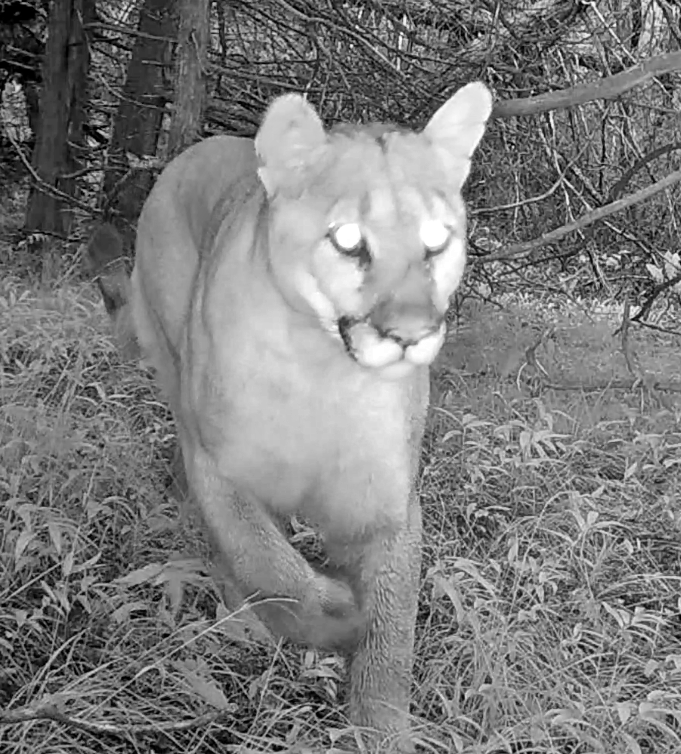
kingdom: Animalia
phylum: Chordata
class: Mammalia
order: Carnivora
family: Felidae
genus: Puma
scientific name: Puma concolor
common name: Puma
